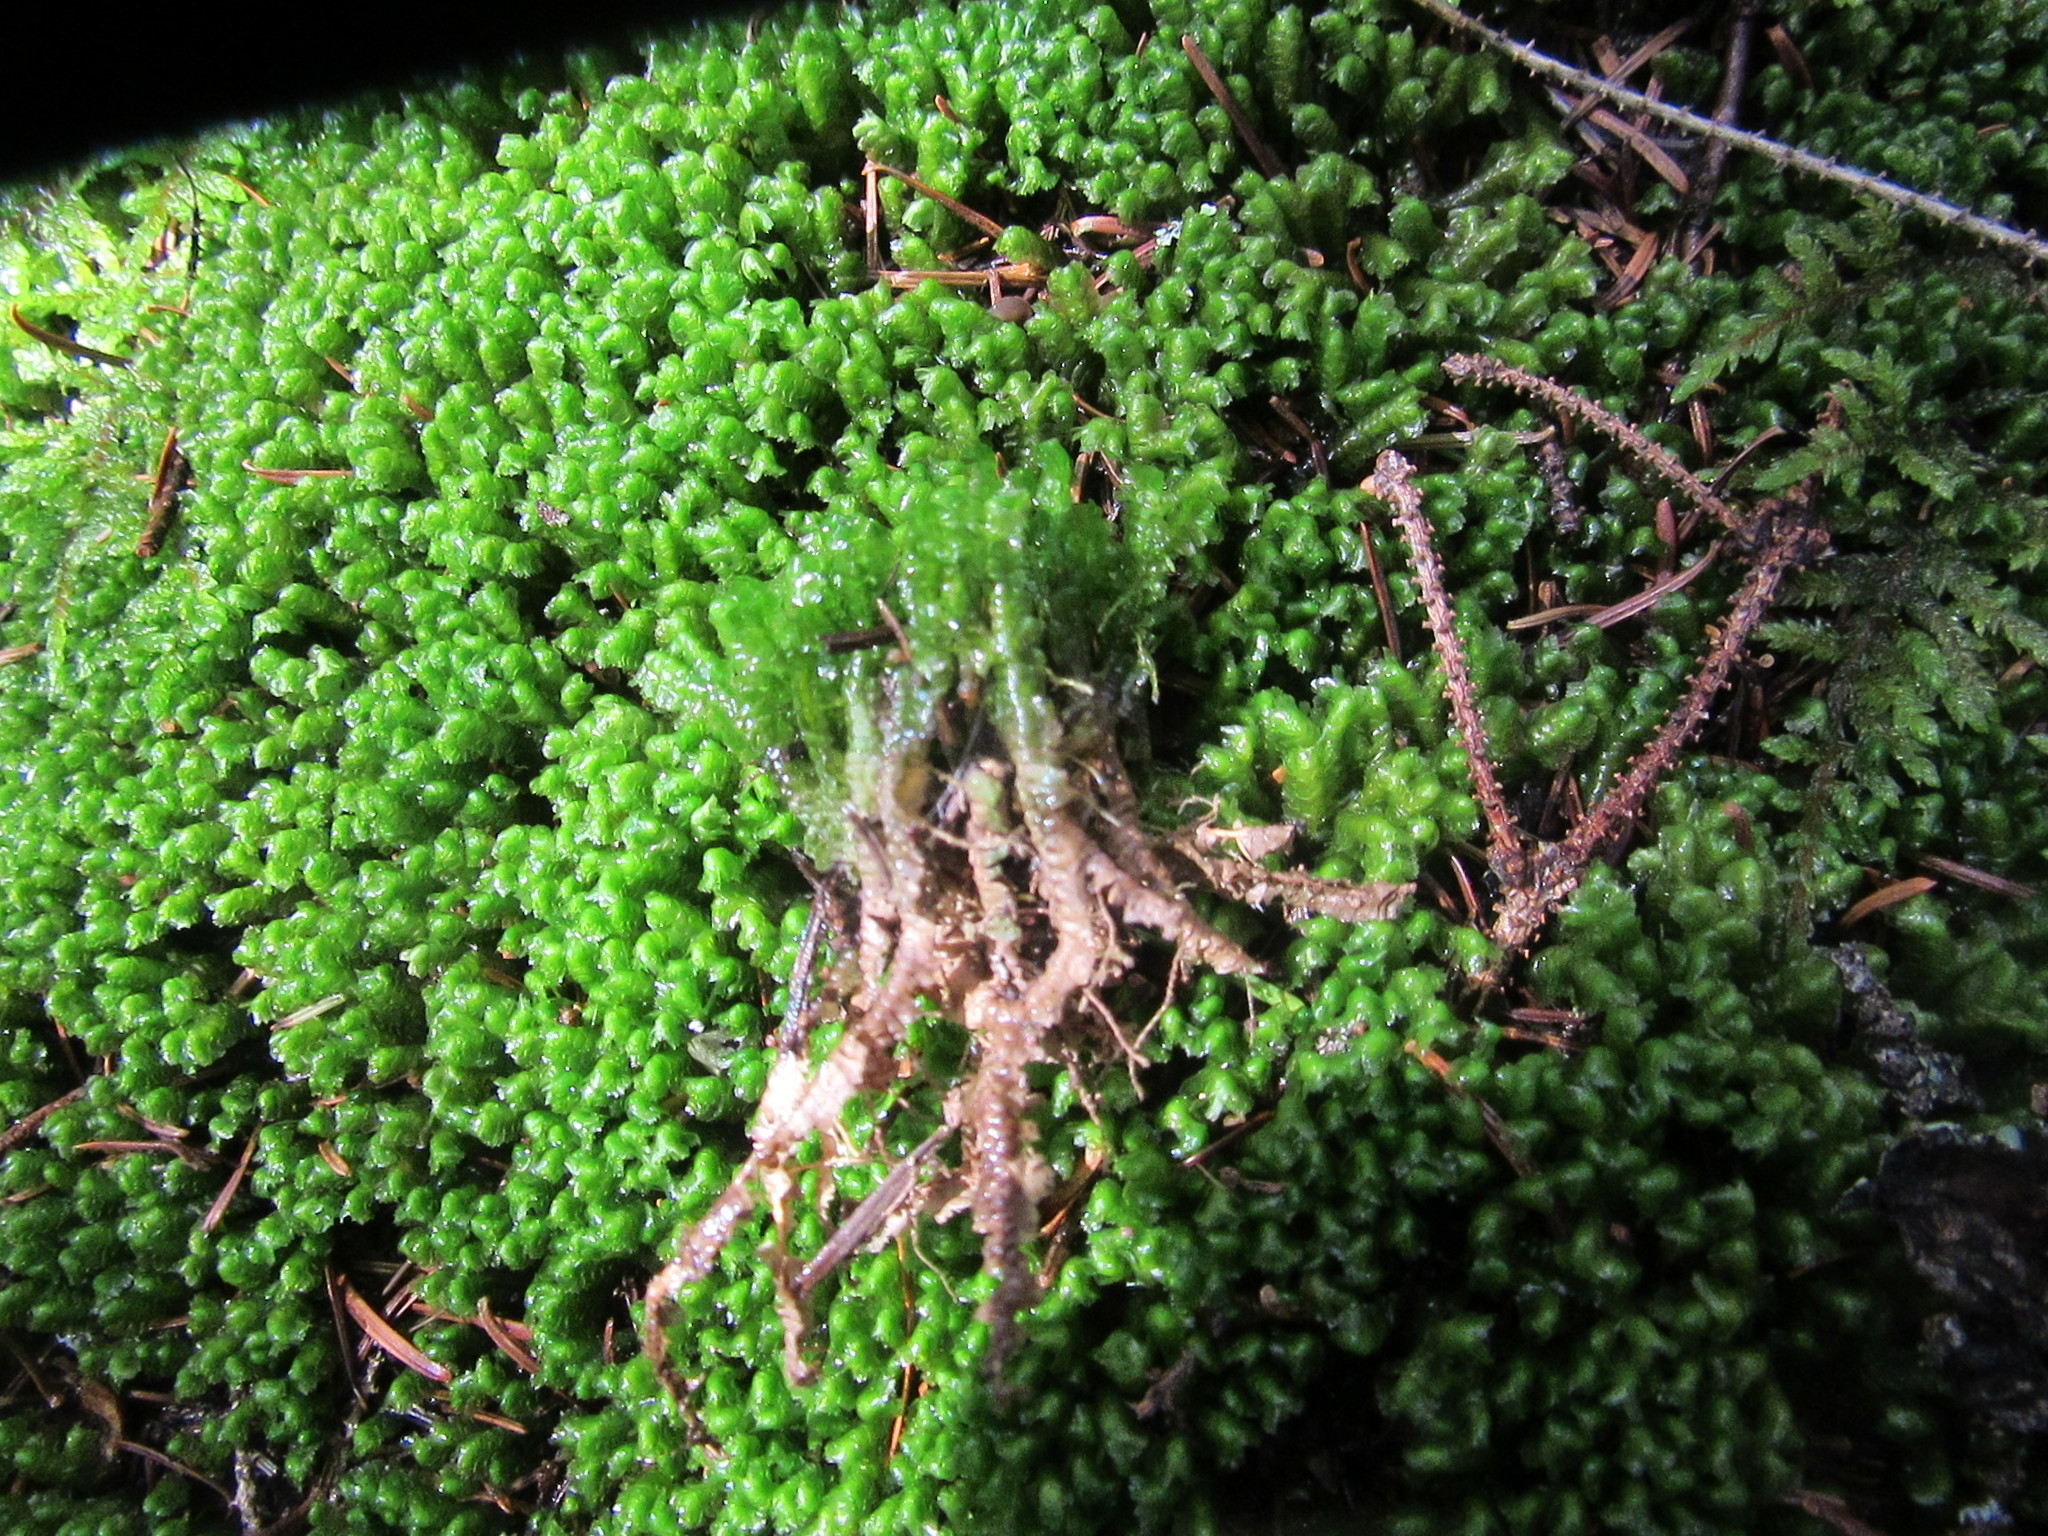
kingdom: Plantae
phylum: Marchantiophyta
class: Jungermanniopsida
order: Jungermanniales
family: Lepidoziaceae
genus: Bazzania
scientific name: Bazzania trilobata
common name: Three-lobed whipwort
